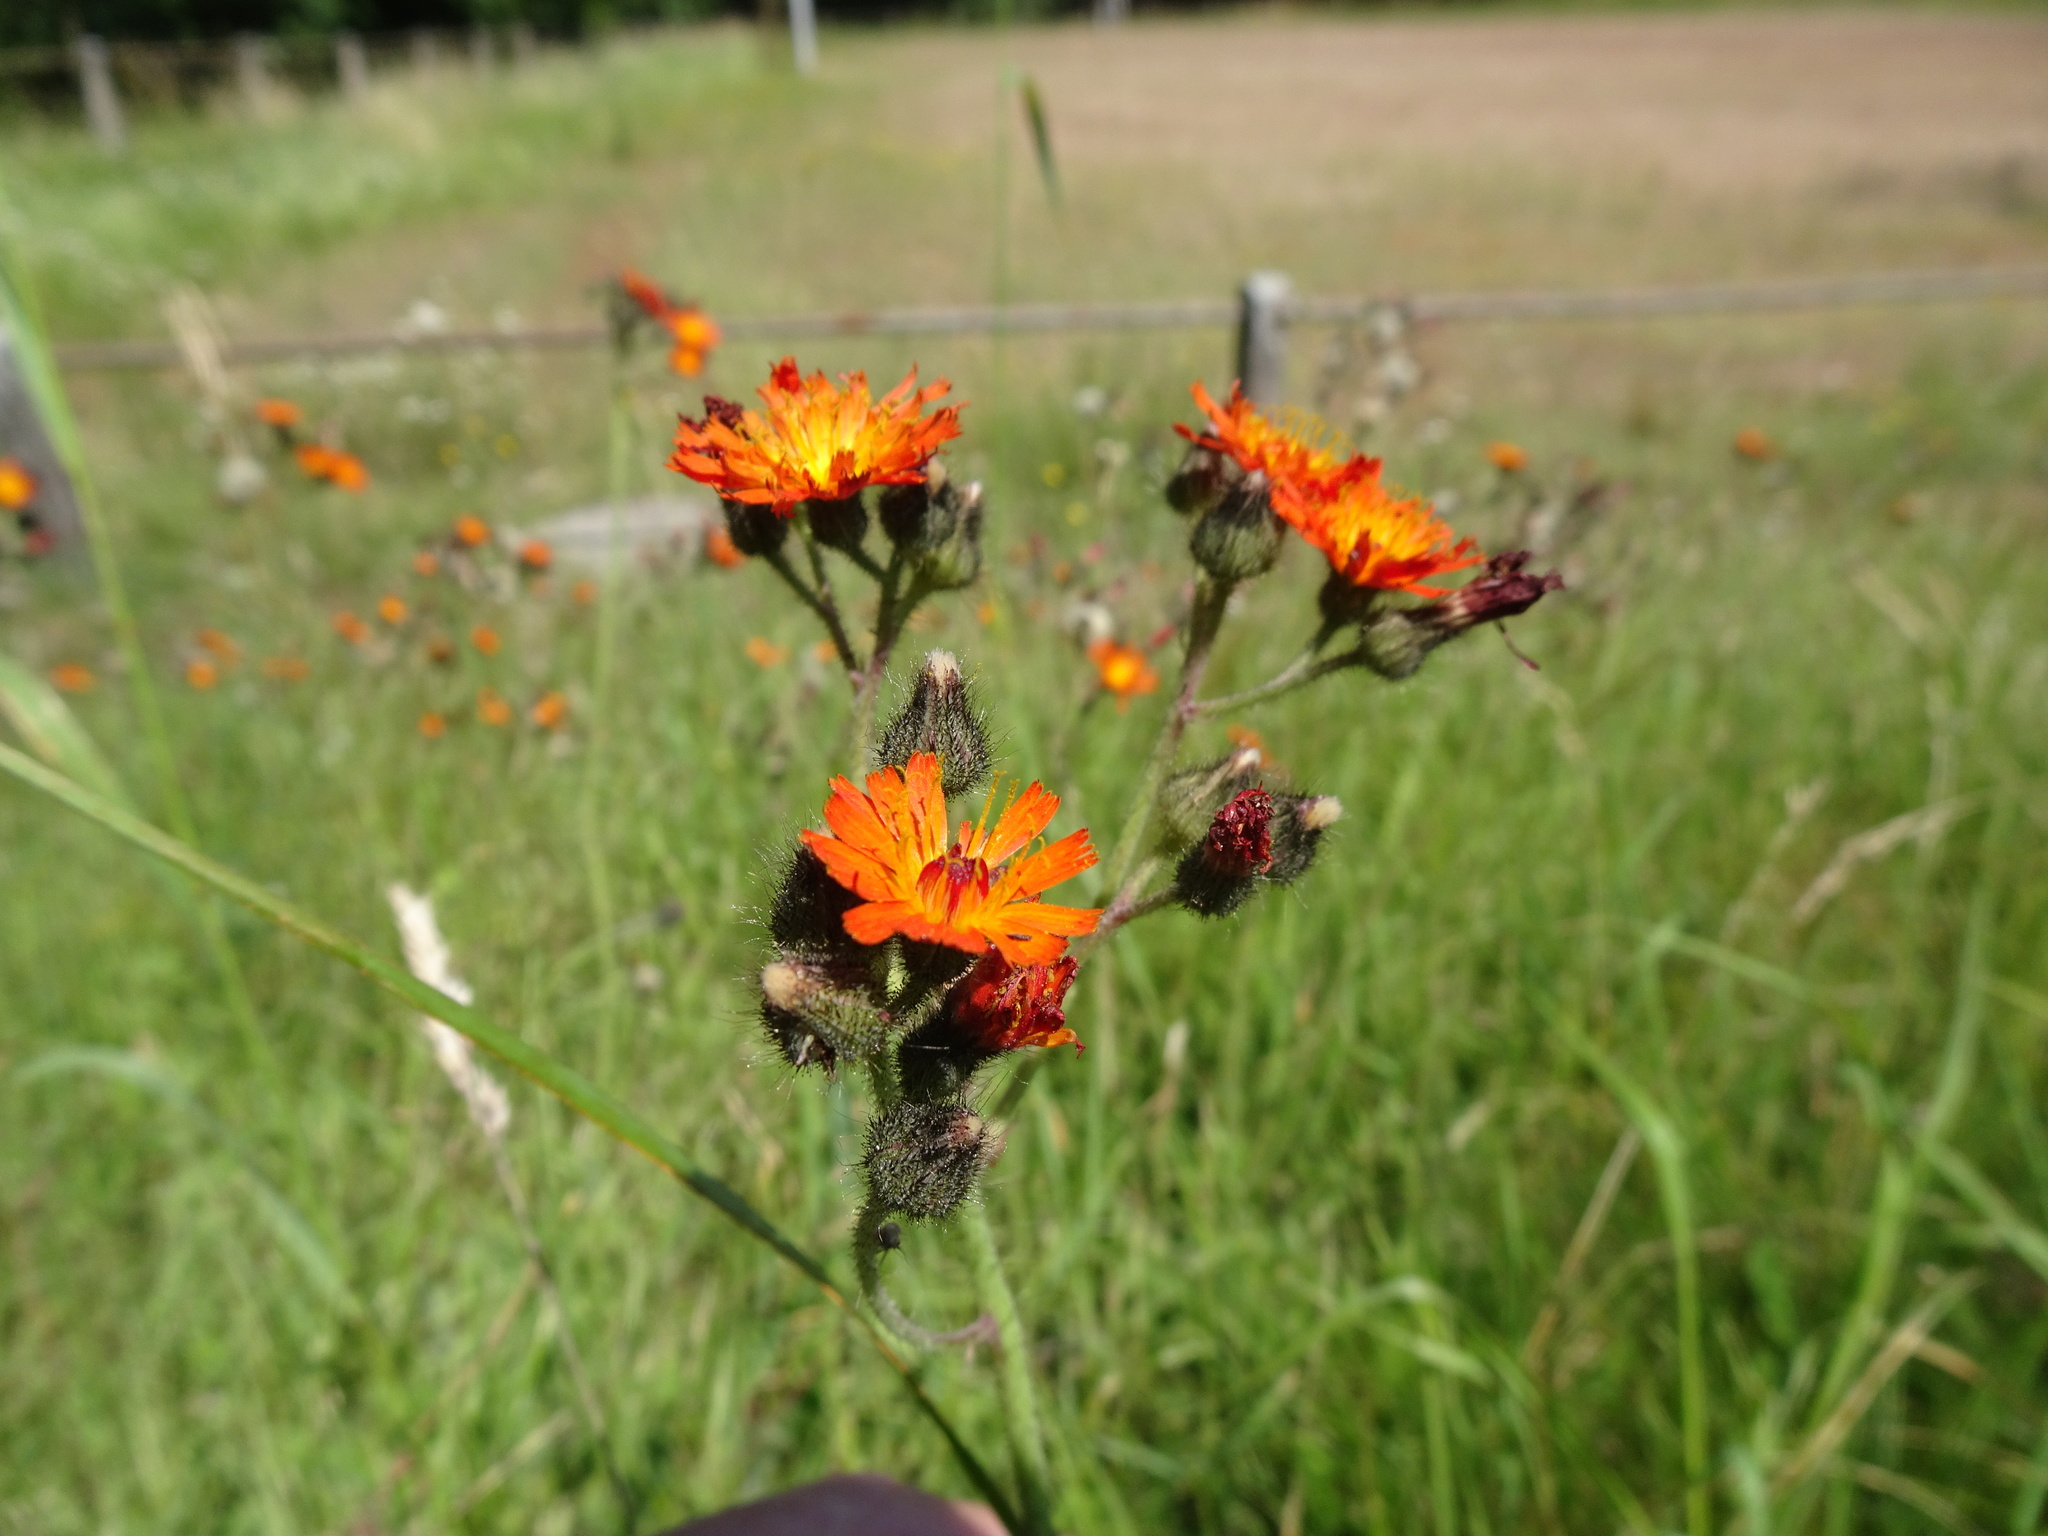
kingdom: Plantae
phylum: Tracheophyta
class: Magnoliopsida
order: Asterales
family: Asteraceae
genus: Pilosella
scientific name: Pilosella aurantiaca
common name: Fox-and-cubs
